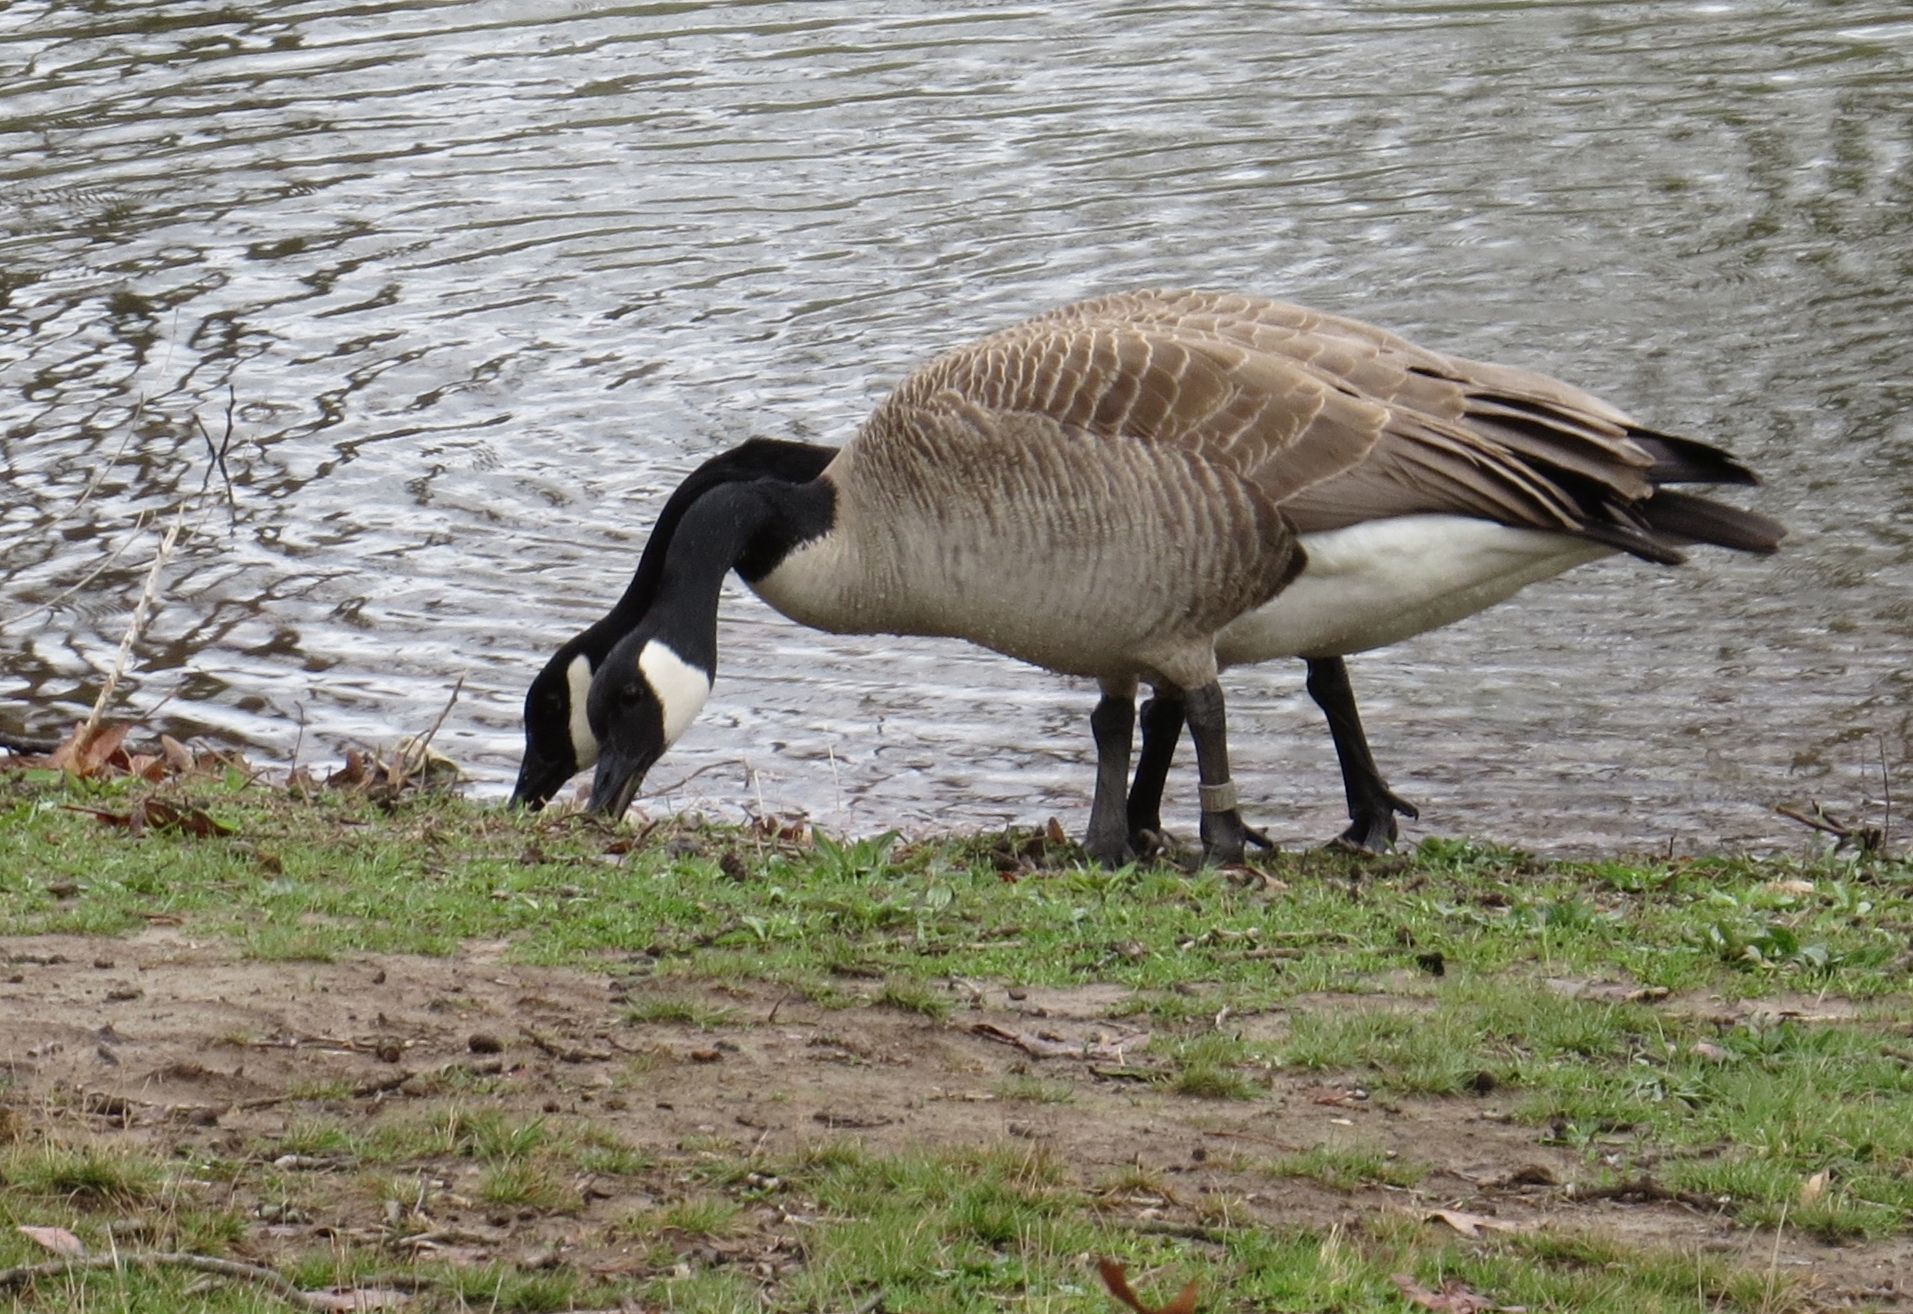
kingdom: Animalia
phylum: Chordata
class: Aves
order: Anseriformes
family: Anatidae
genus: Branta
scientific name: Branta canadensis
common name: Canada goose
